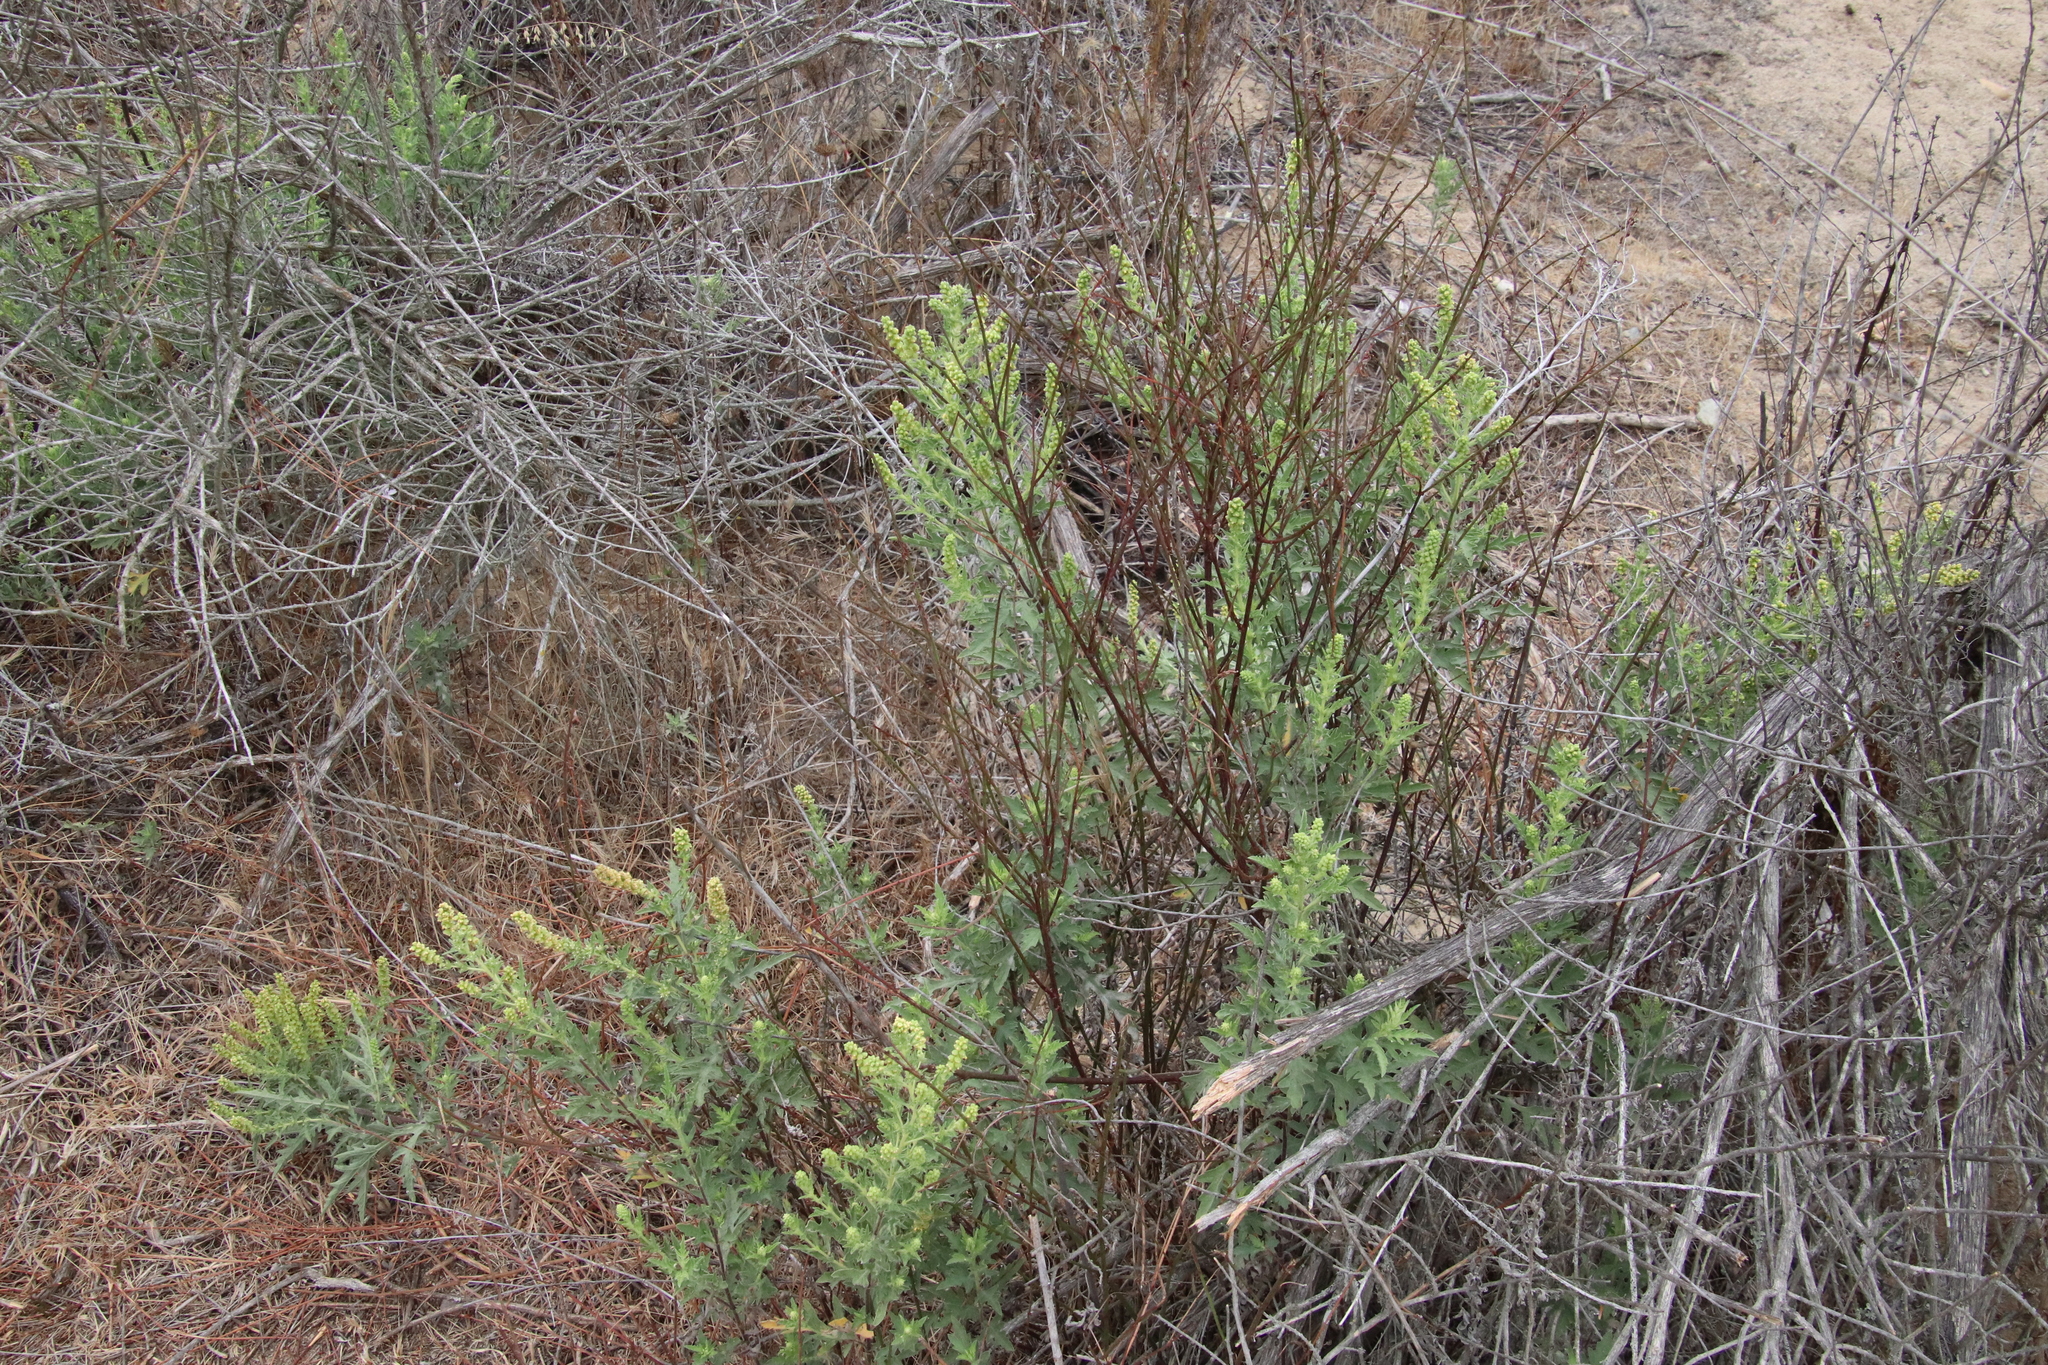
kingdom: Plantae
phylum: Tracheophyta
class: Magnoliopsida
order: Asterales
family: Asteraceae
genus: Ambrosia
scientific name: Ambrosia psilostachya
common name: Perennial ragweed
